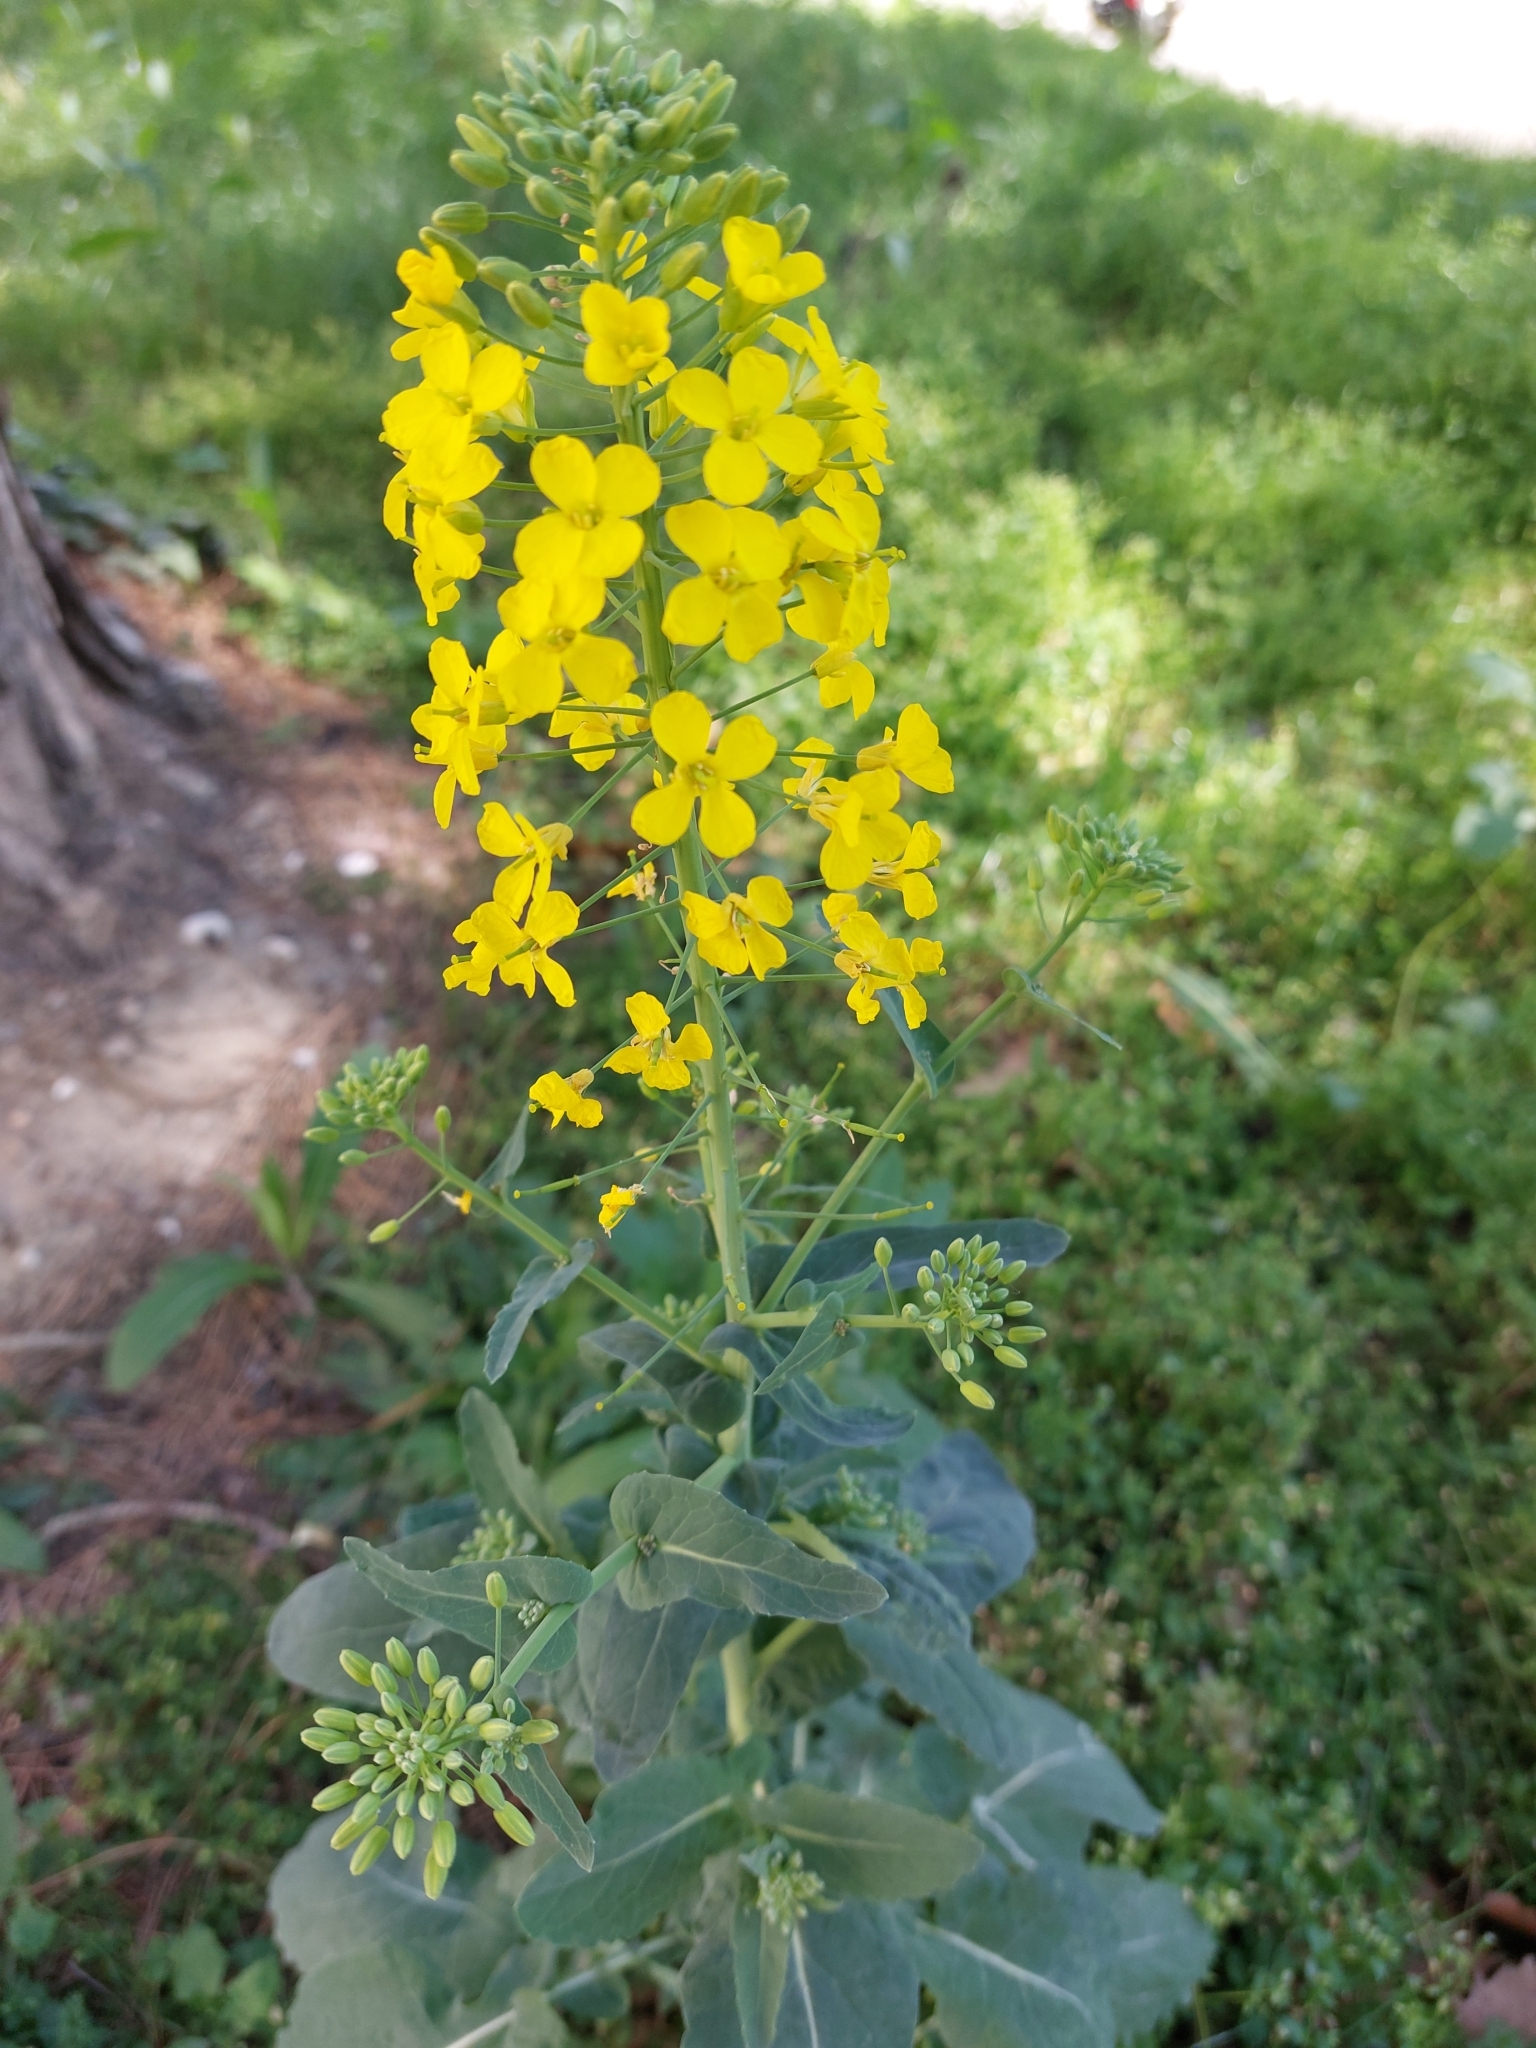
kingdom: Plantae
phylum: Tracheophyta
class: Magnoliopsida
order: Brassicales
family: Brassicaceae
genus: Brassica
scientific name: Brassica napus
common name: Rape
